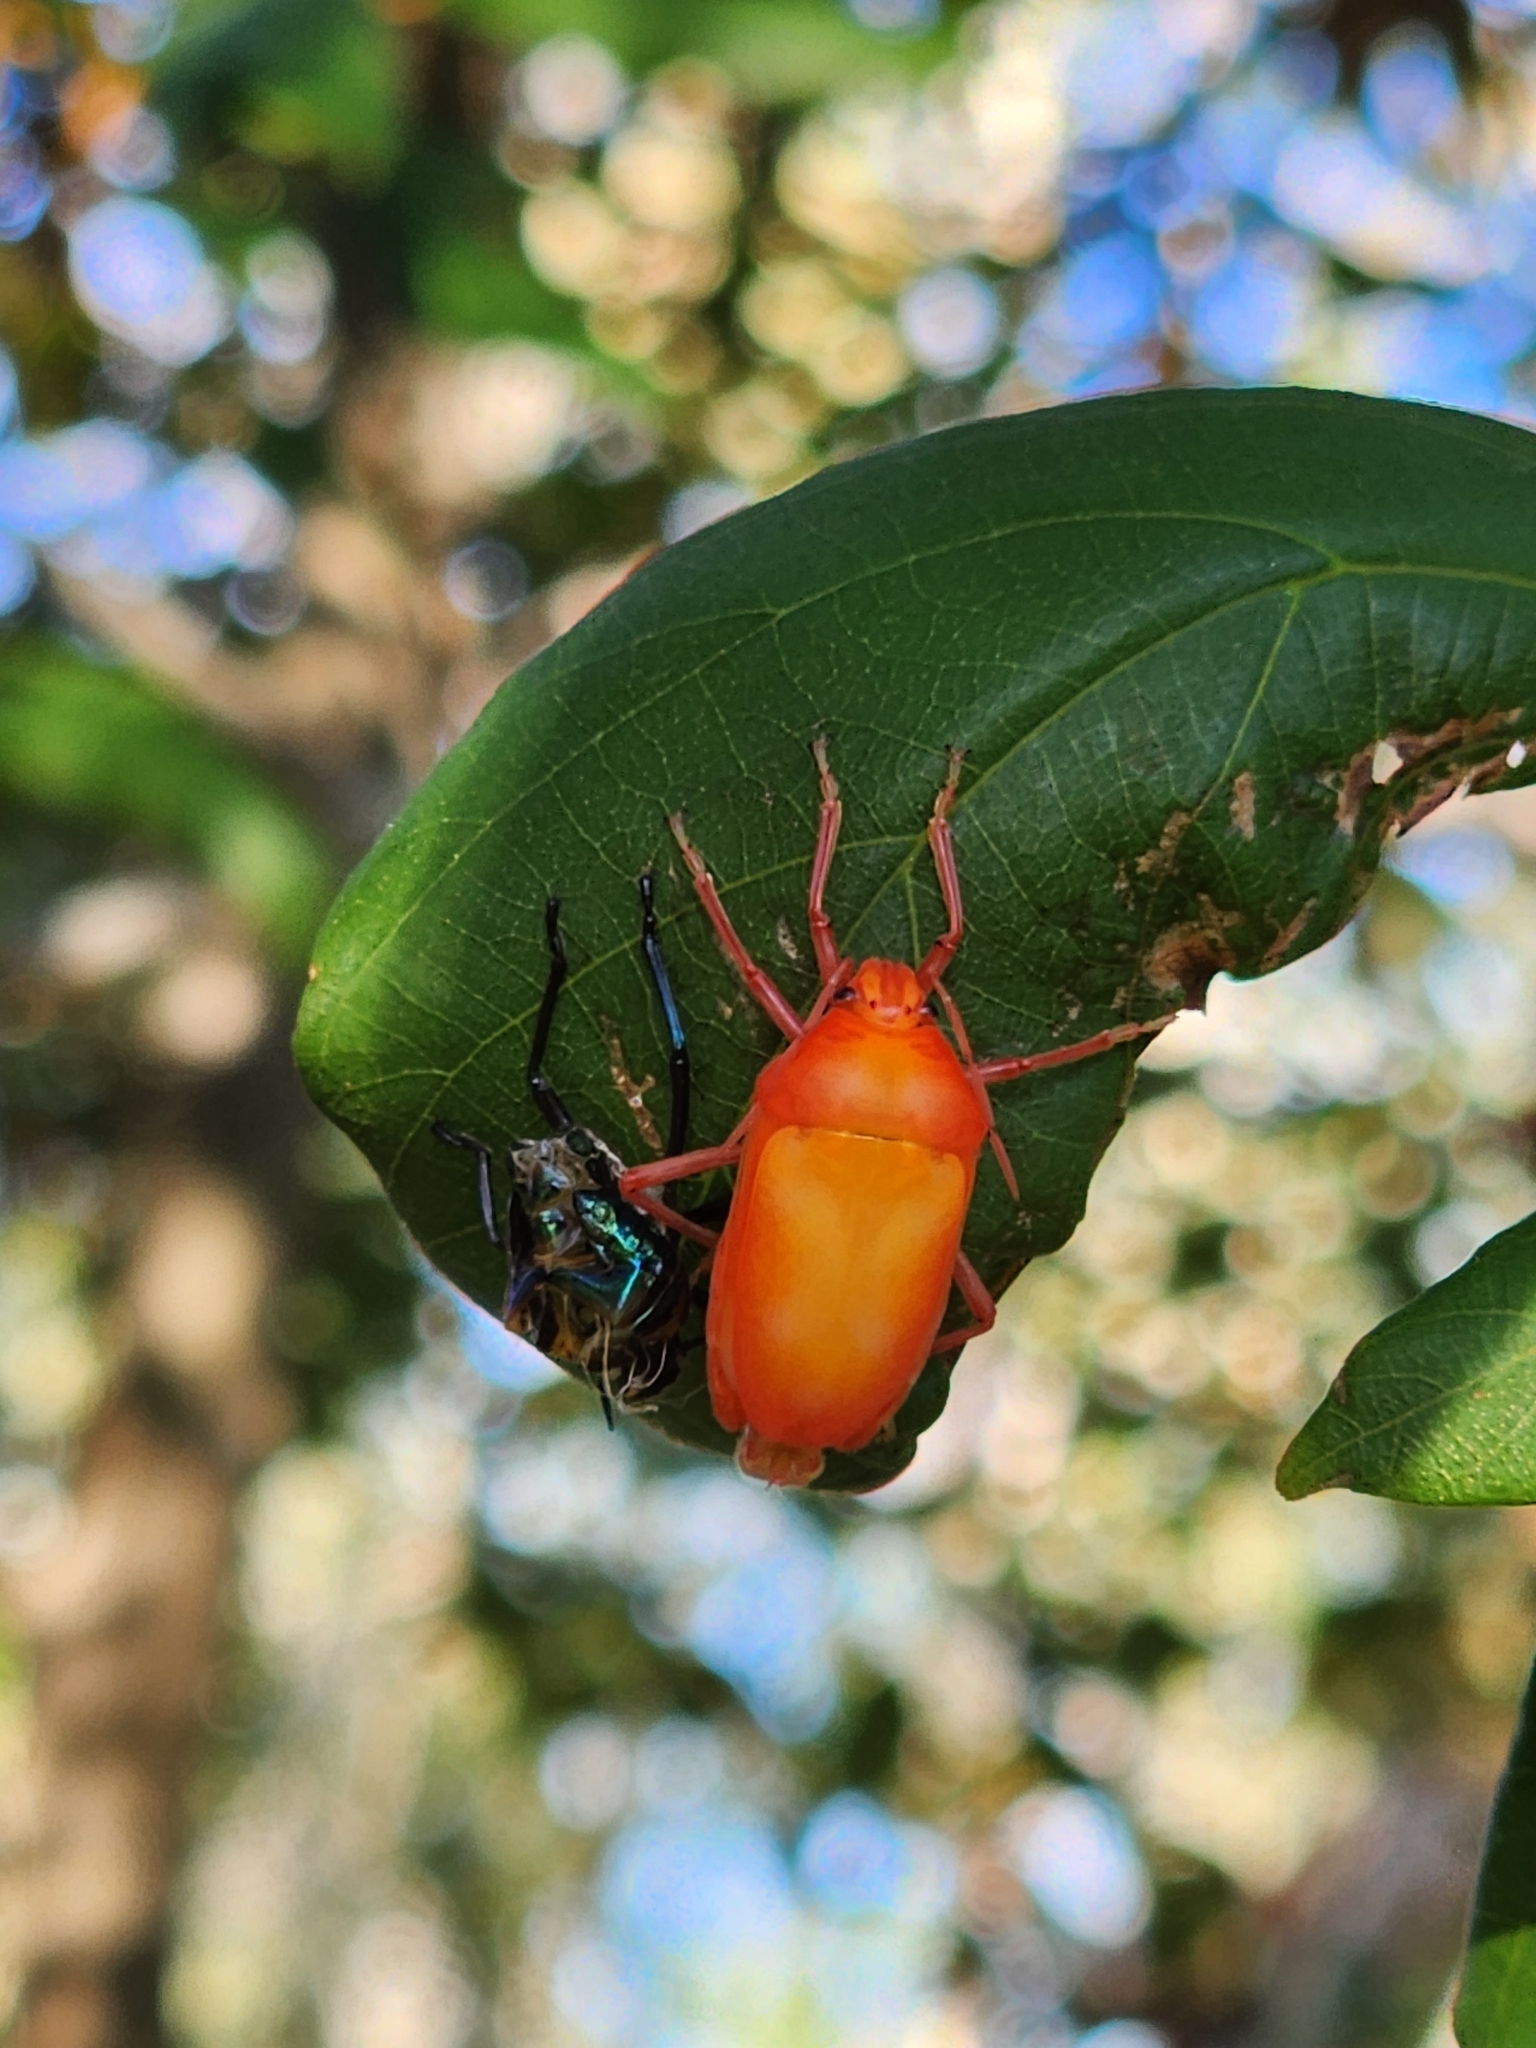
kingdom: Animalia
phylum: Arthropoda
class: Insecta
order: Hemiptera
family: Scutelleridae
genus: Cantao
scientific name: Cantao
